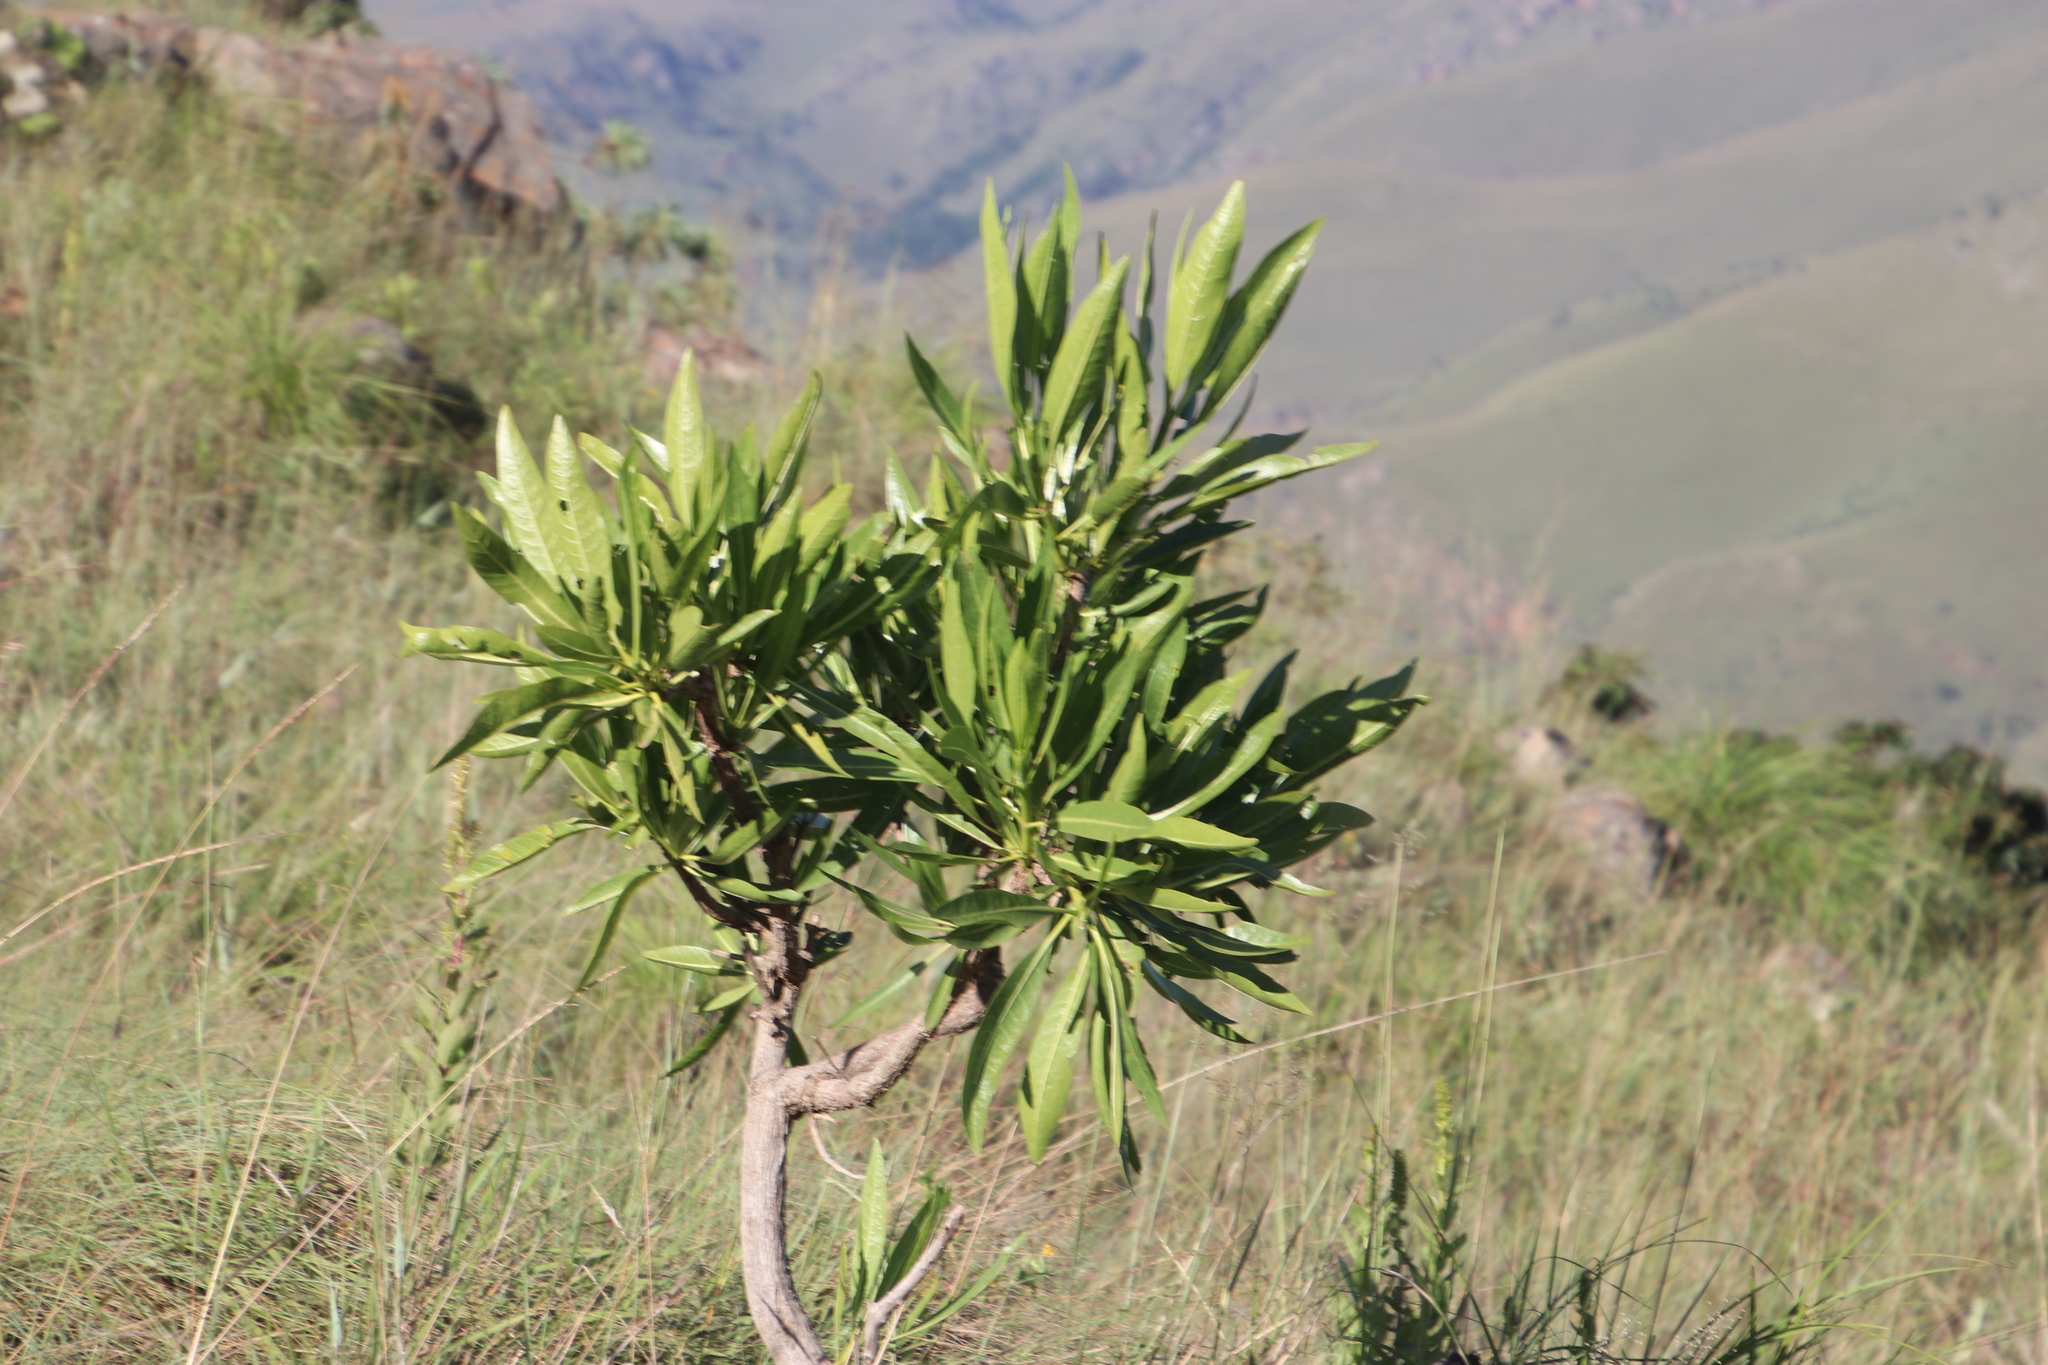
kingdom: Plantae
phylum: Tracheophyta
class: Magnoliopsida
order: Gentianales
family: Rubiaceae
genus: Pavetta
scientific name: Pavetta edentula
